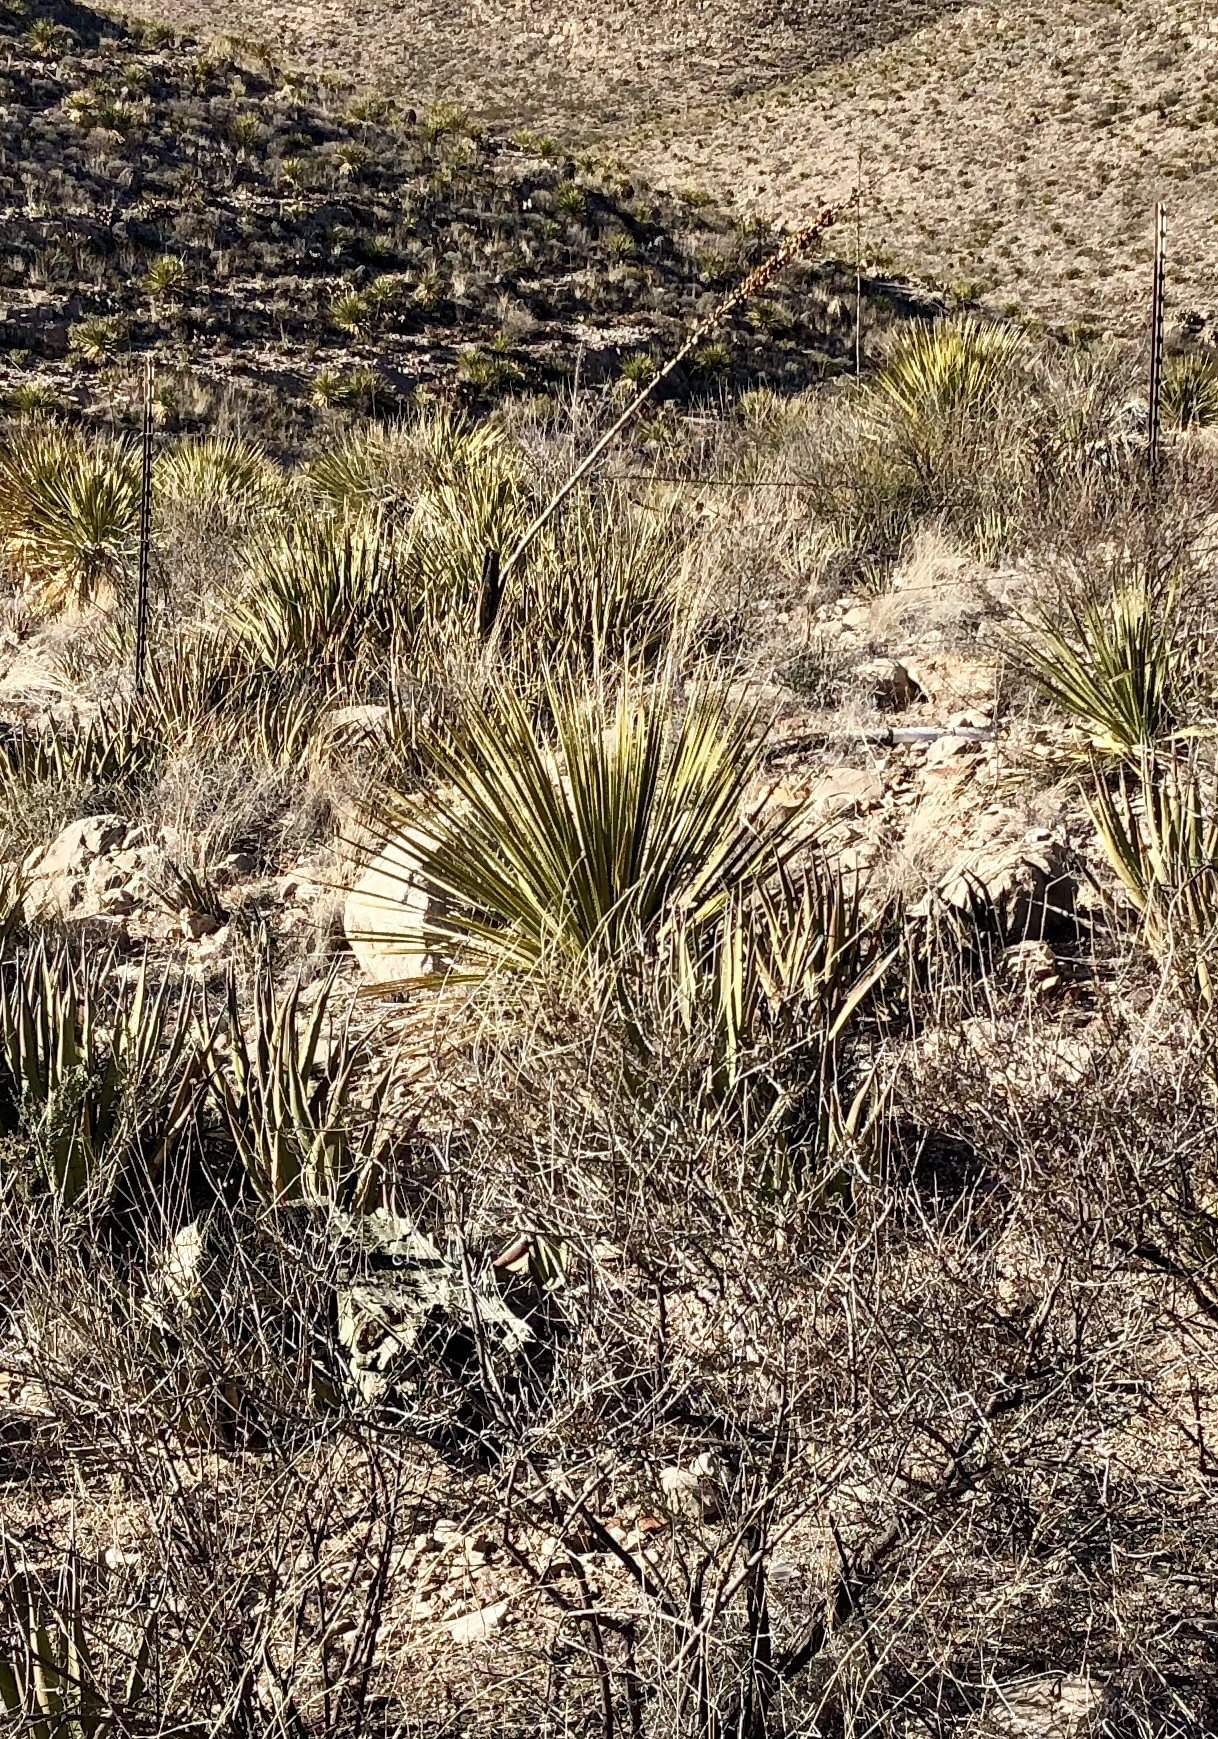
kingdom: Plantae
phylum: Tracheophyta
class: Liliopsida
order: Asparagales
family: Asparagaceae
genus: Dasylirion
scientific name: Dasylirion wheeleri
